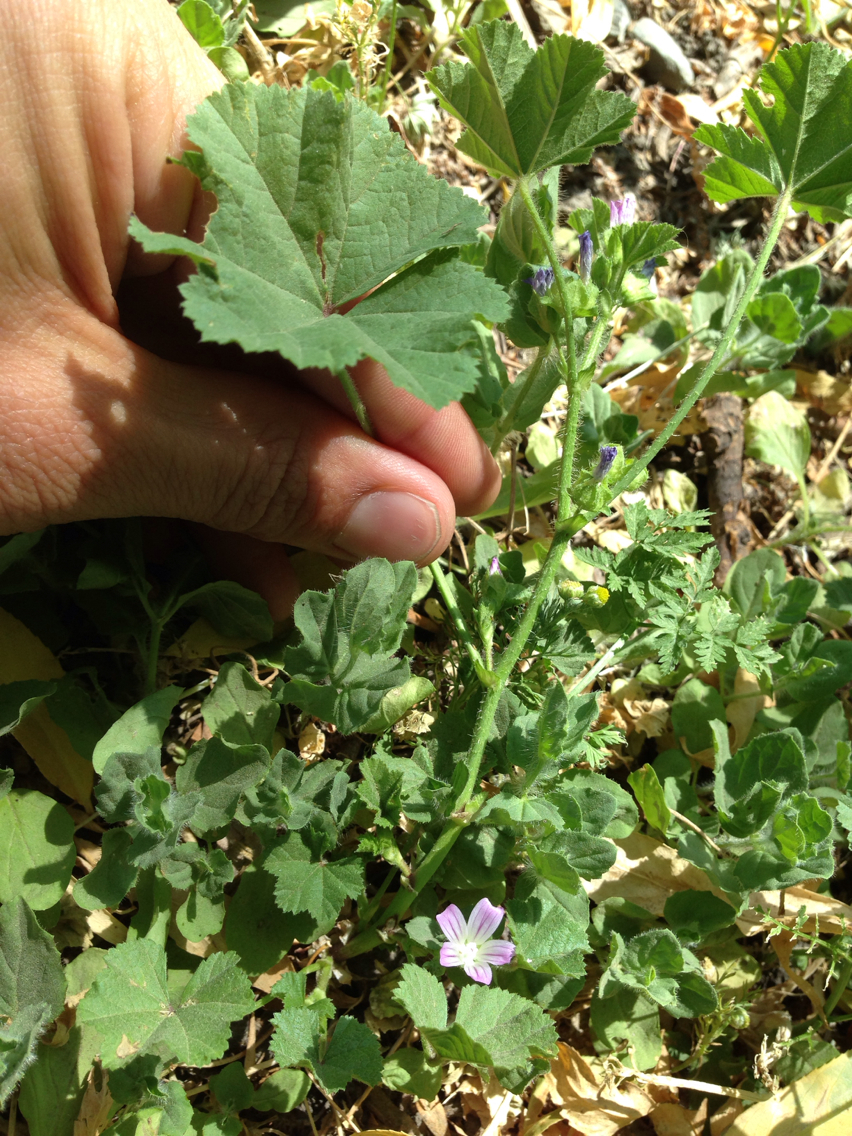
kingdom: Plantae
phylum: Tracheophyta
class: Magnoliopsida
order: Malvales
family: Malvaceae
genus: Malva
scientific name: Malva nicaeensis
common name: French mallow
